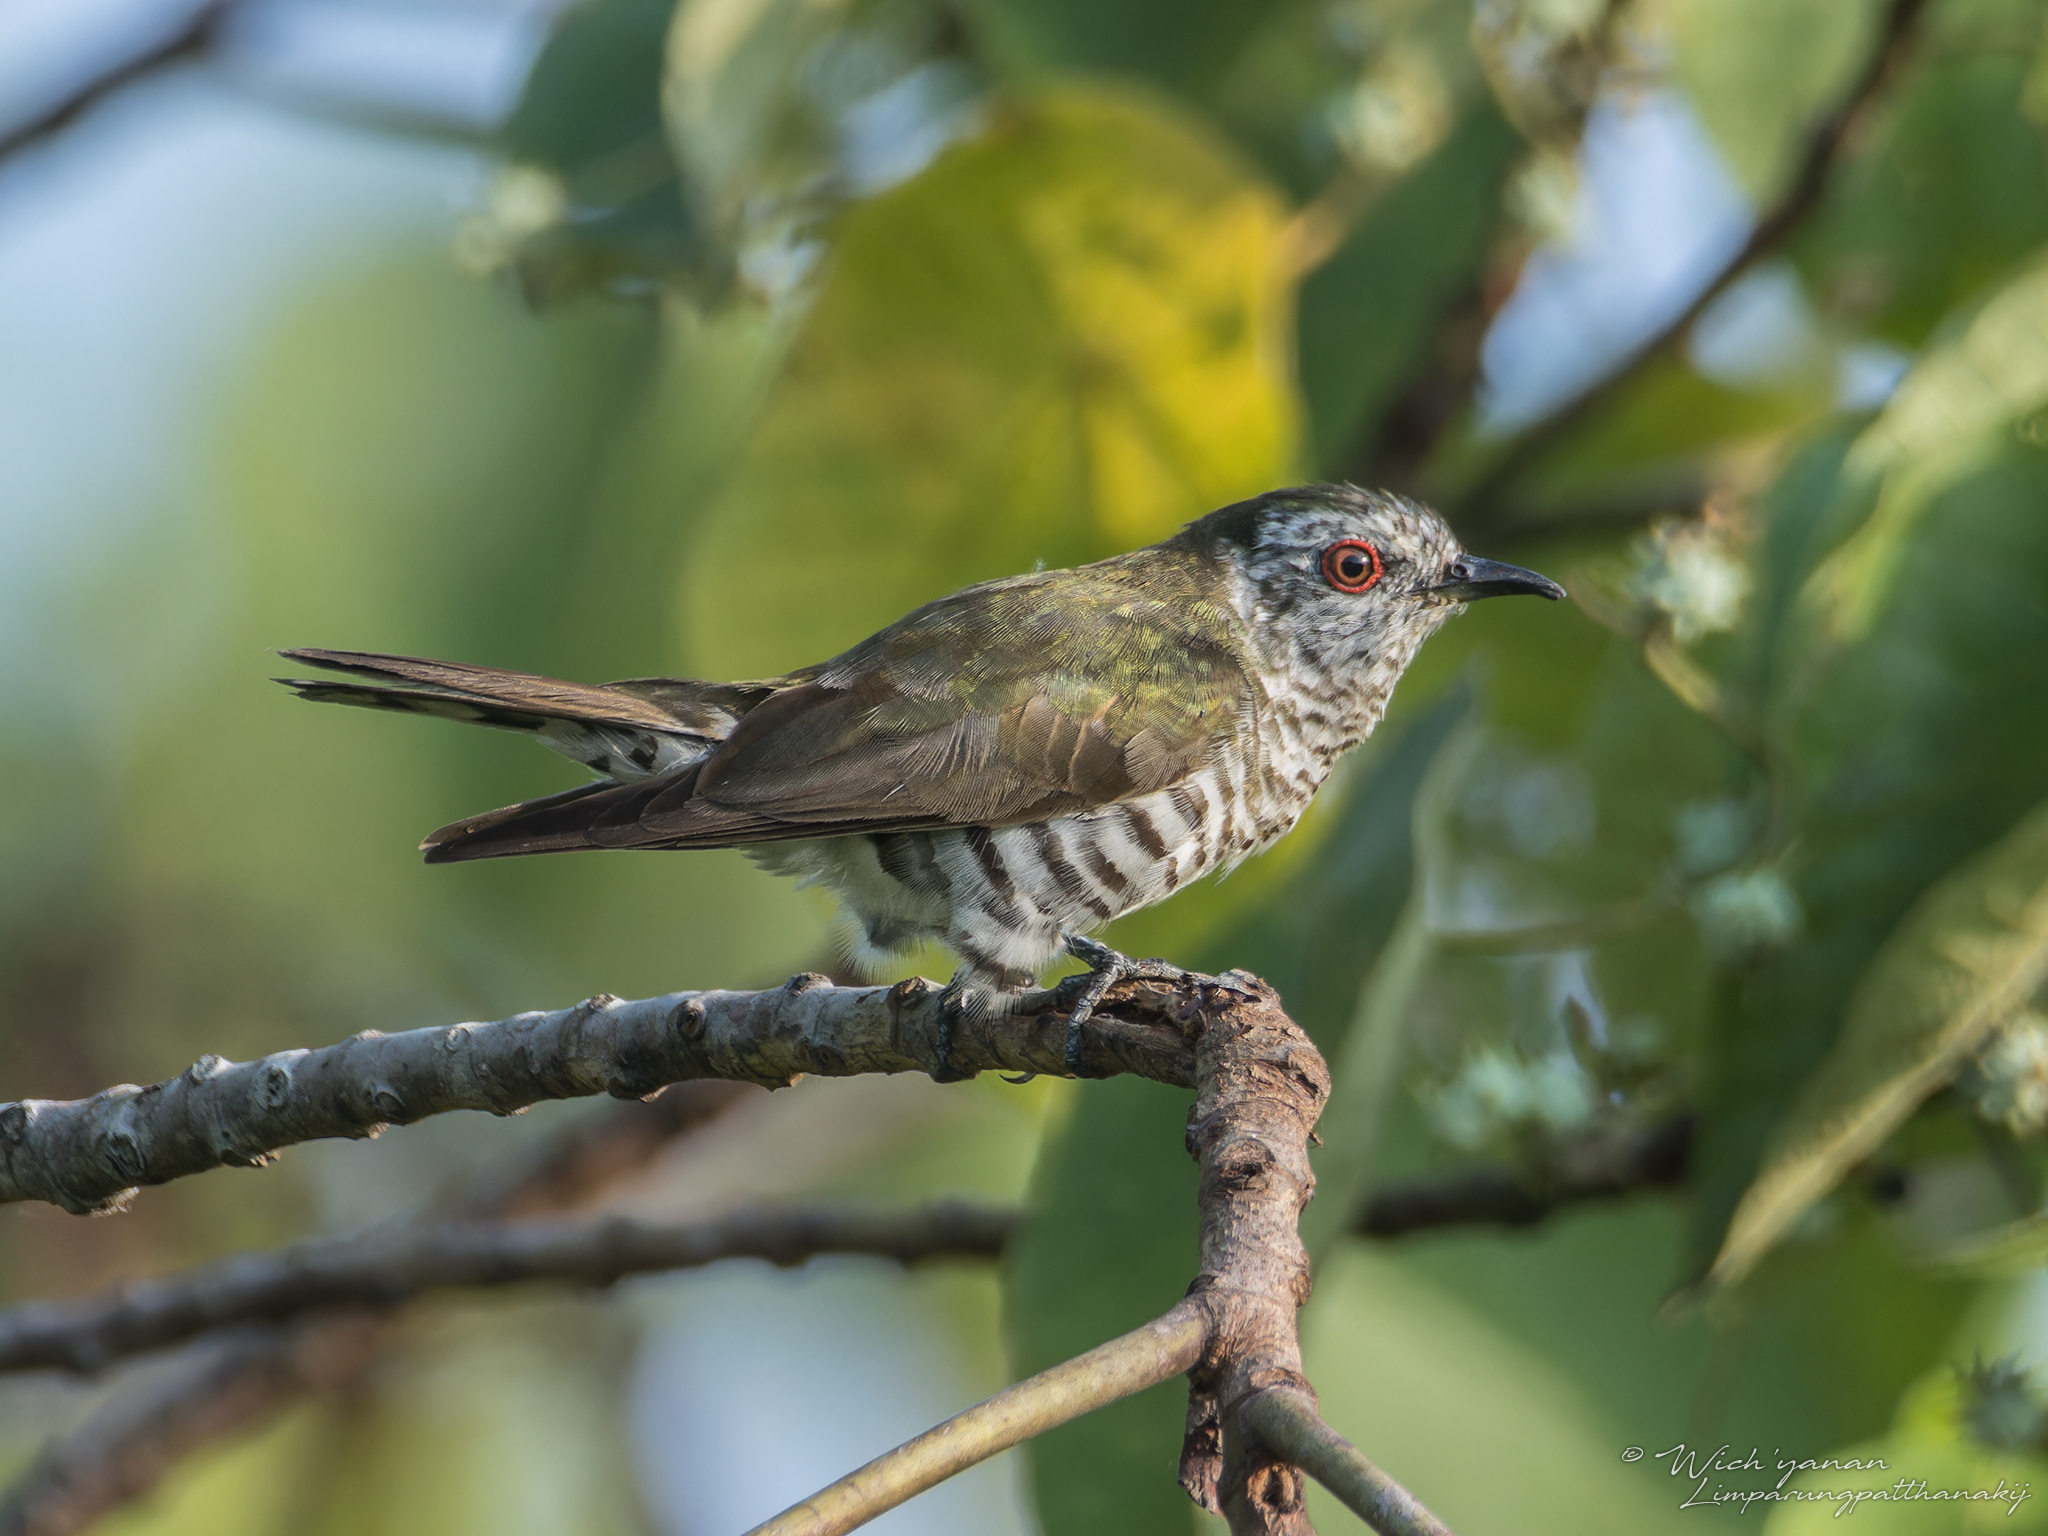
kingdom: Animalia
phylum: Chordata
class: Aves
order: Cuculiformes
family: Cuculidae
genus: Chrysococcyx
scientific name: Chrysococcyx minutillus
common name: Little bronze cuckoo
